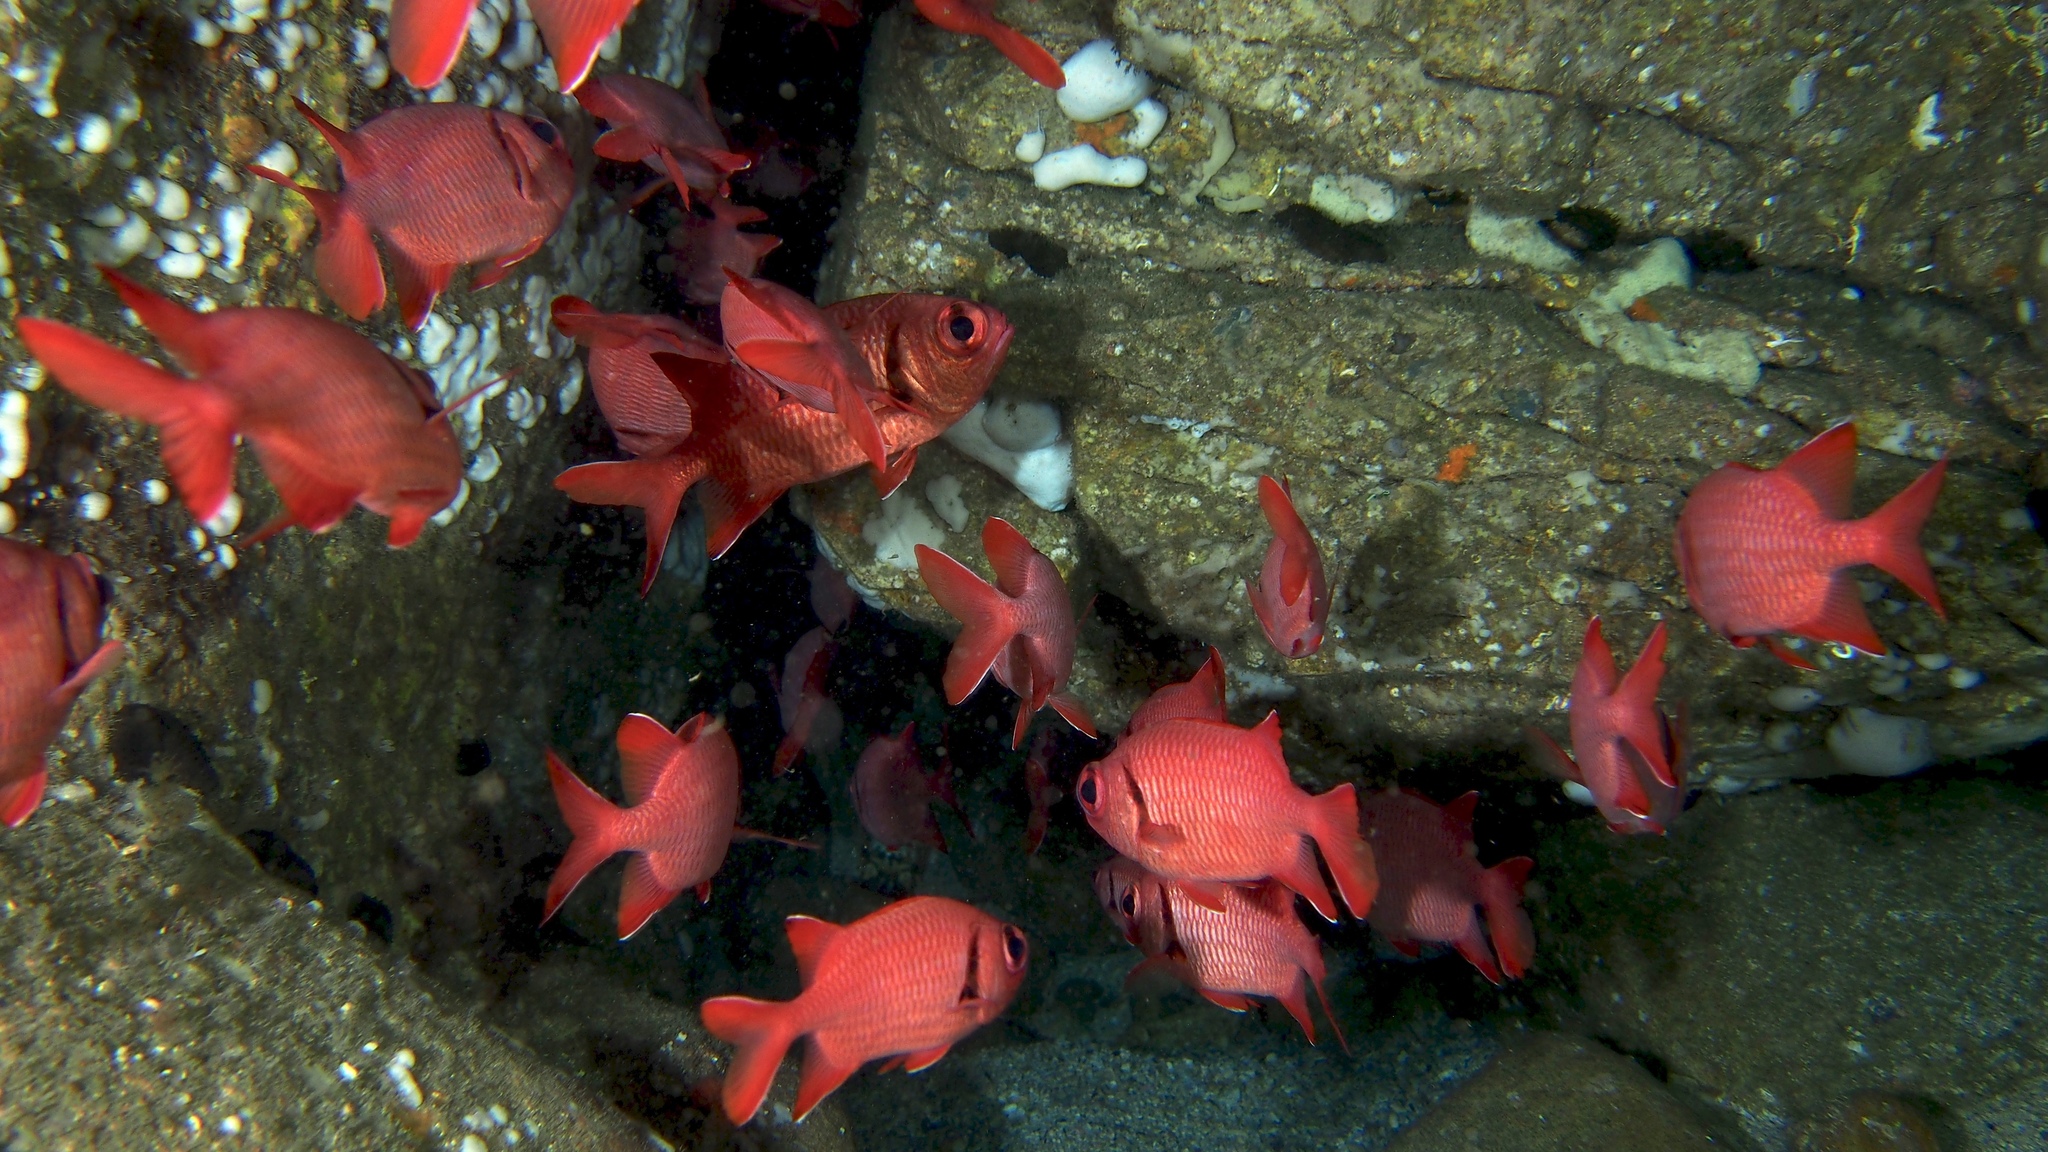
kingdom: Animalia
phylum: Chordata
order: Beryciformes
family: Holocentridae
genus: Myripristis
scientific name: Myripristis murdjan
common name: Big-eye soldierfish
